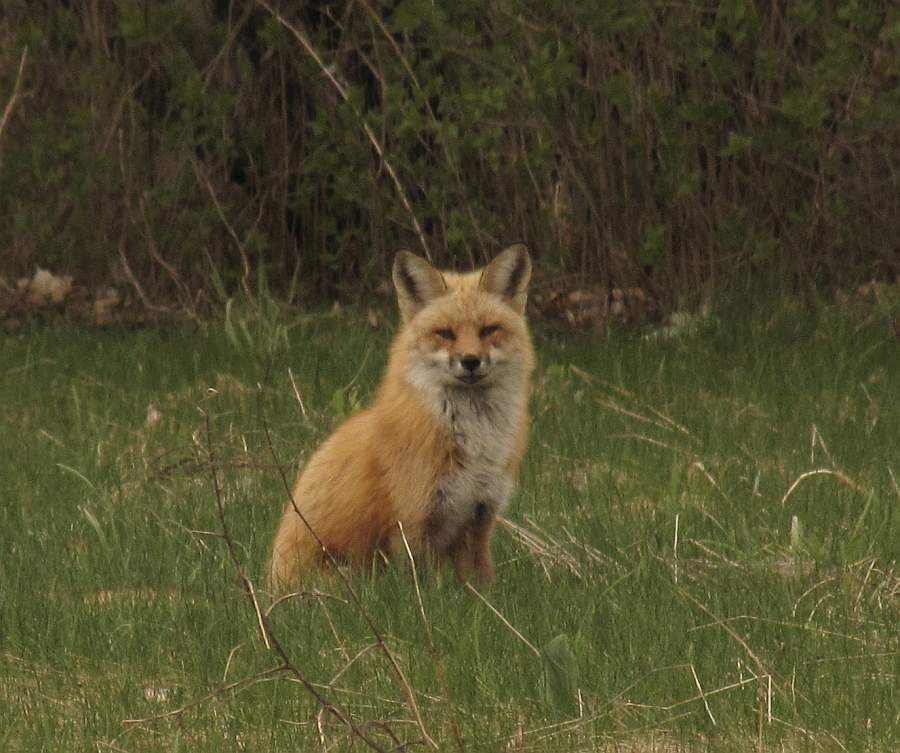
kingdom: Animalia
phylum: Chordata
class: Mammalia
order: Carnivora
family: Canidae
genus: Vulpes
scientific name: Vulpes vulpes
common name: Red fox
